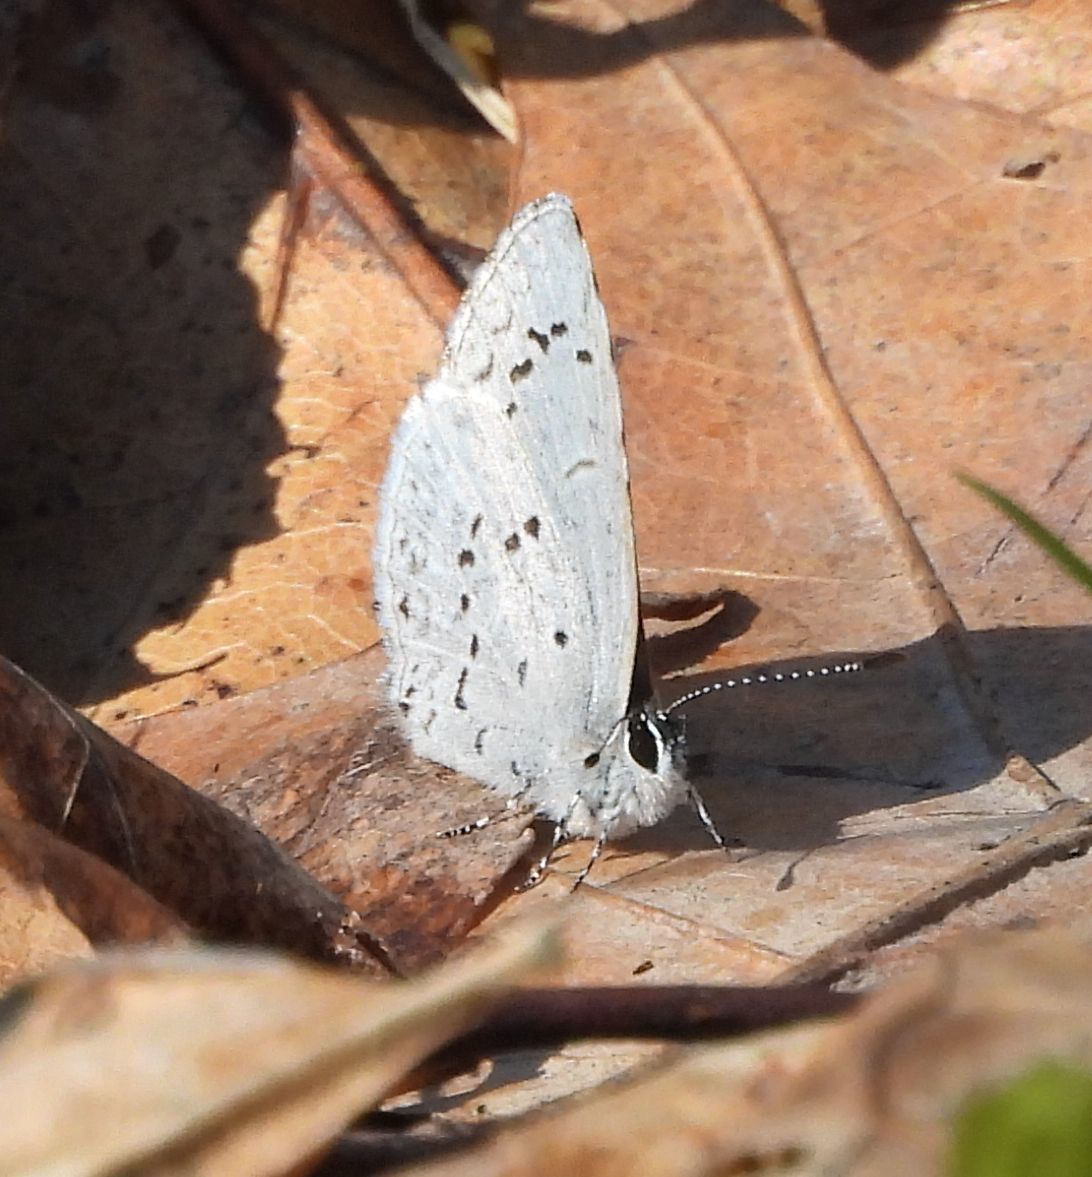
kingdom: Animalia
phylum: Arthropoda
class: Insecta
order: Lepidoptera
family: Lycaenidae
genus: Celastrina
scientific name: Celastrina lucia
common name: Lucia azure
